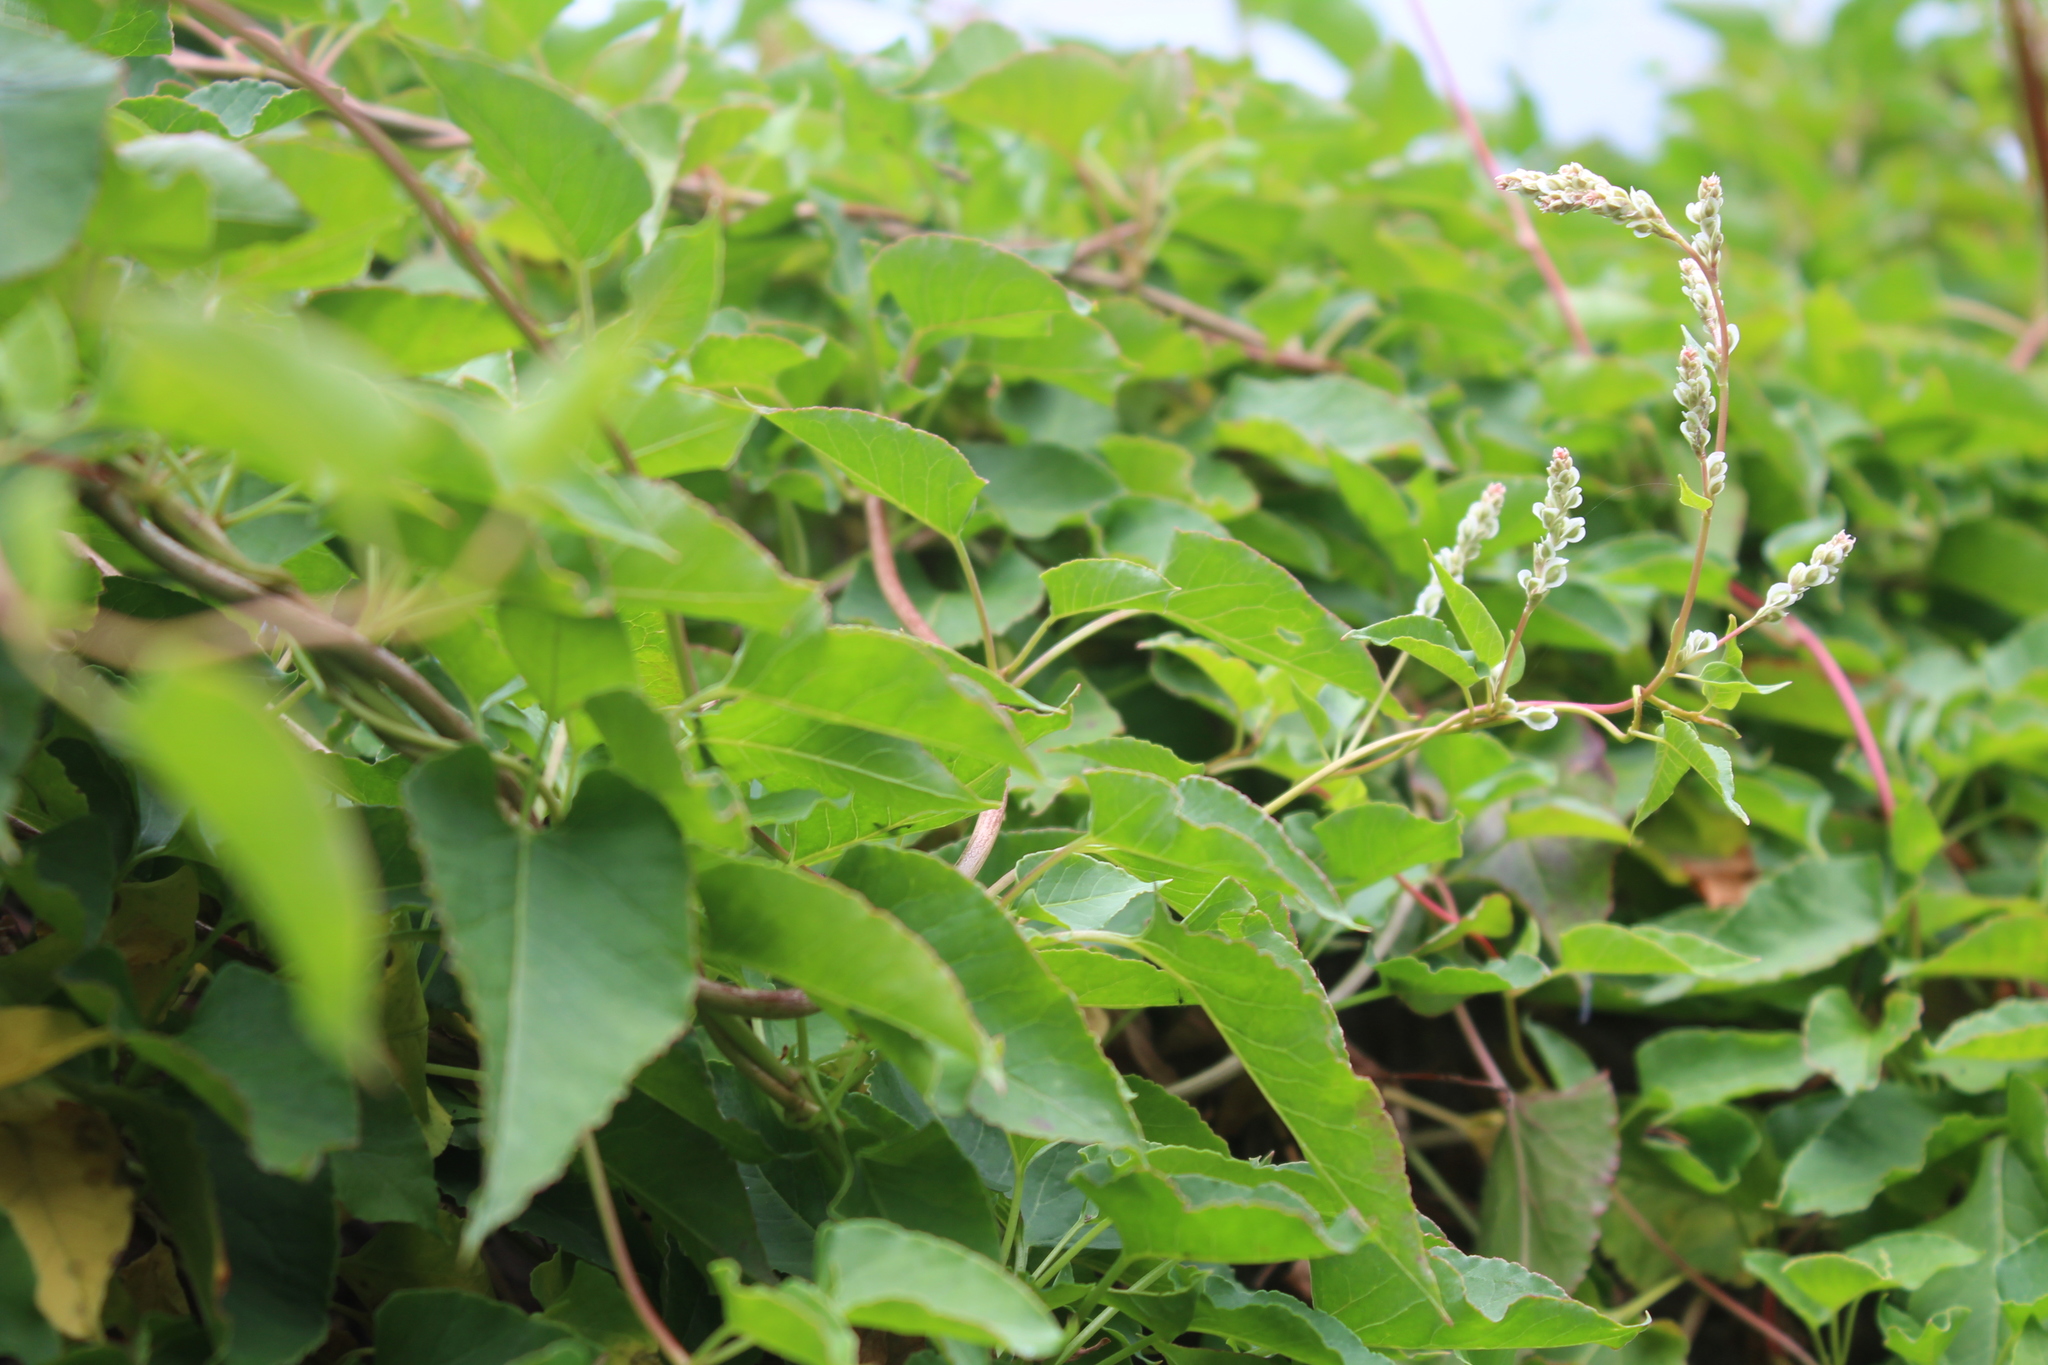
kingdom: Plantae
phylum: Tracheophyta
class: Magnoliopsida
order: Caryophyllales
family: Polygonaceae
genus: Fallopia
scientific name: Fallopia baldschuanica
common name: Russian-vine
